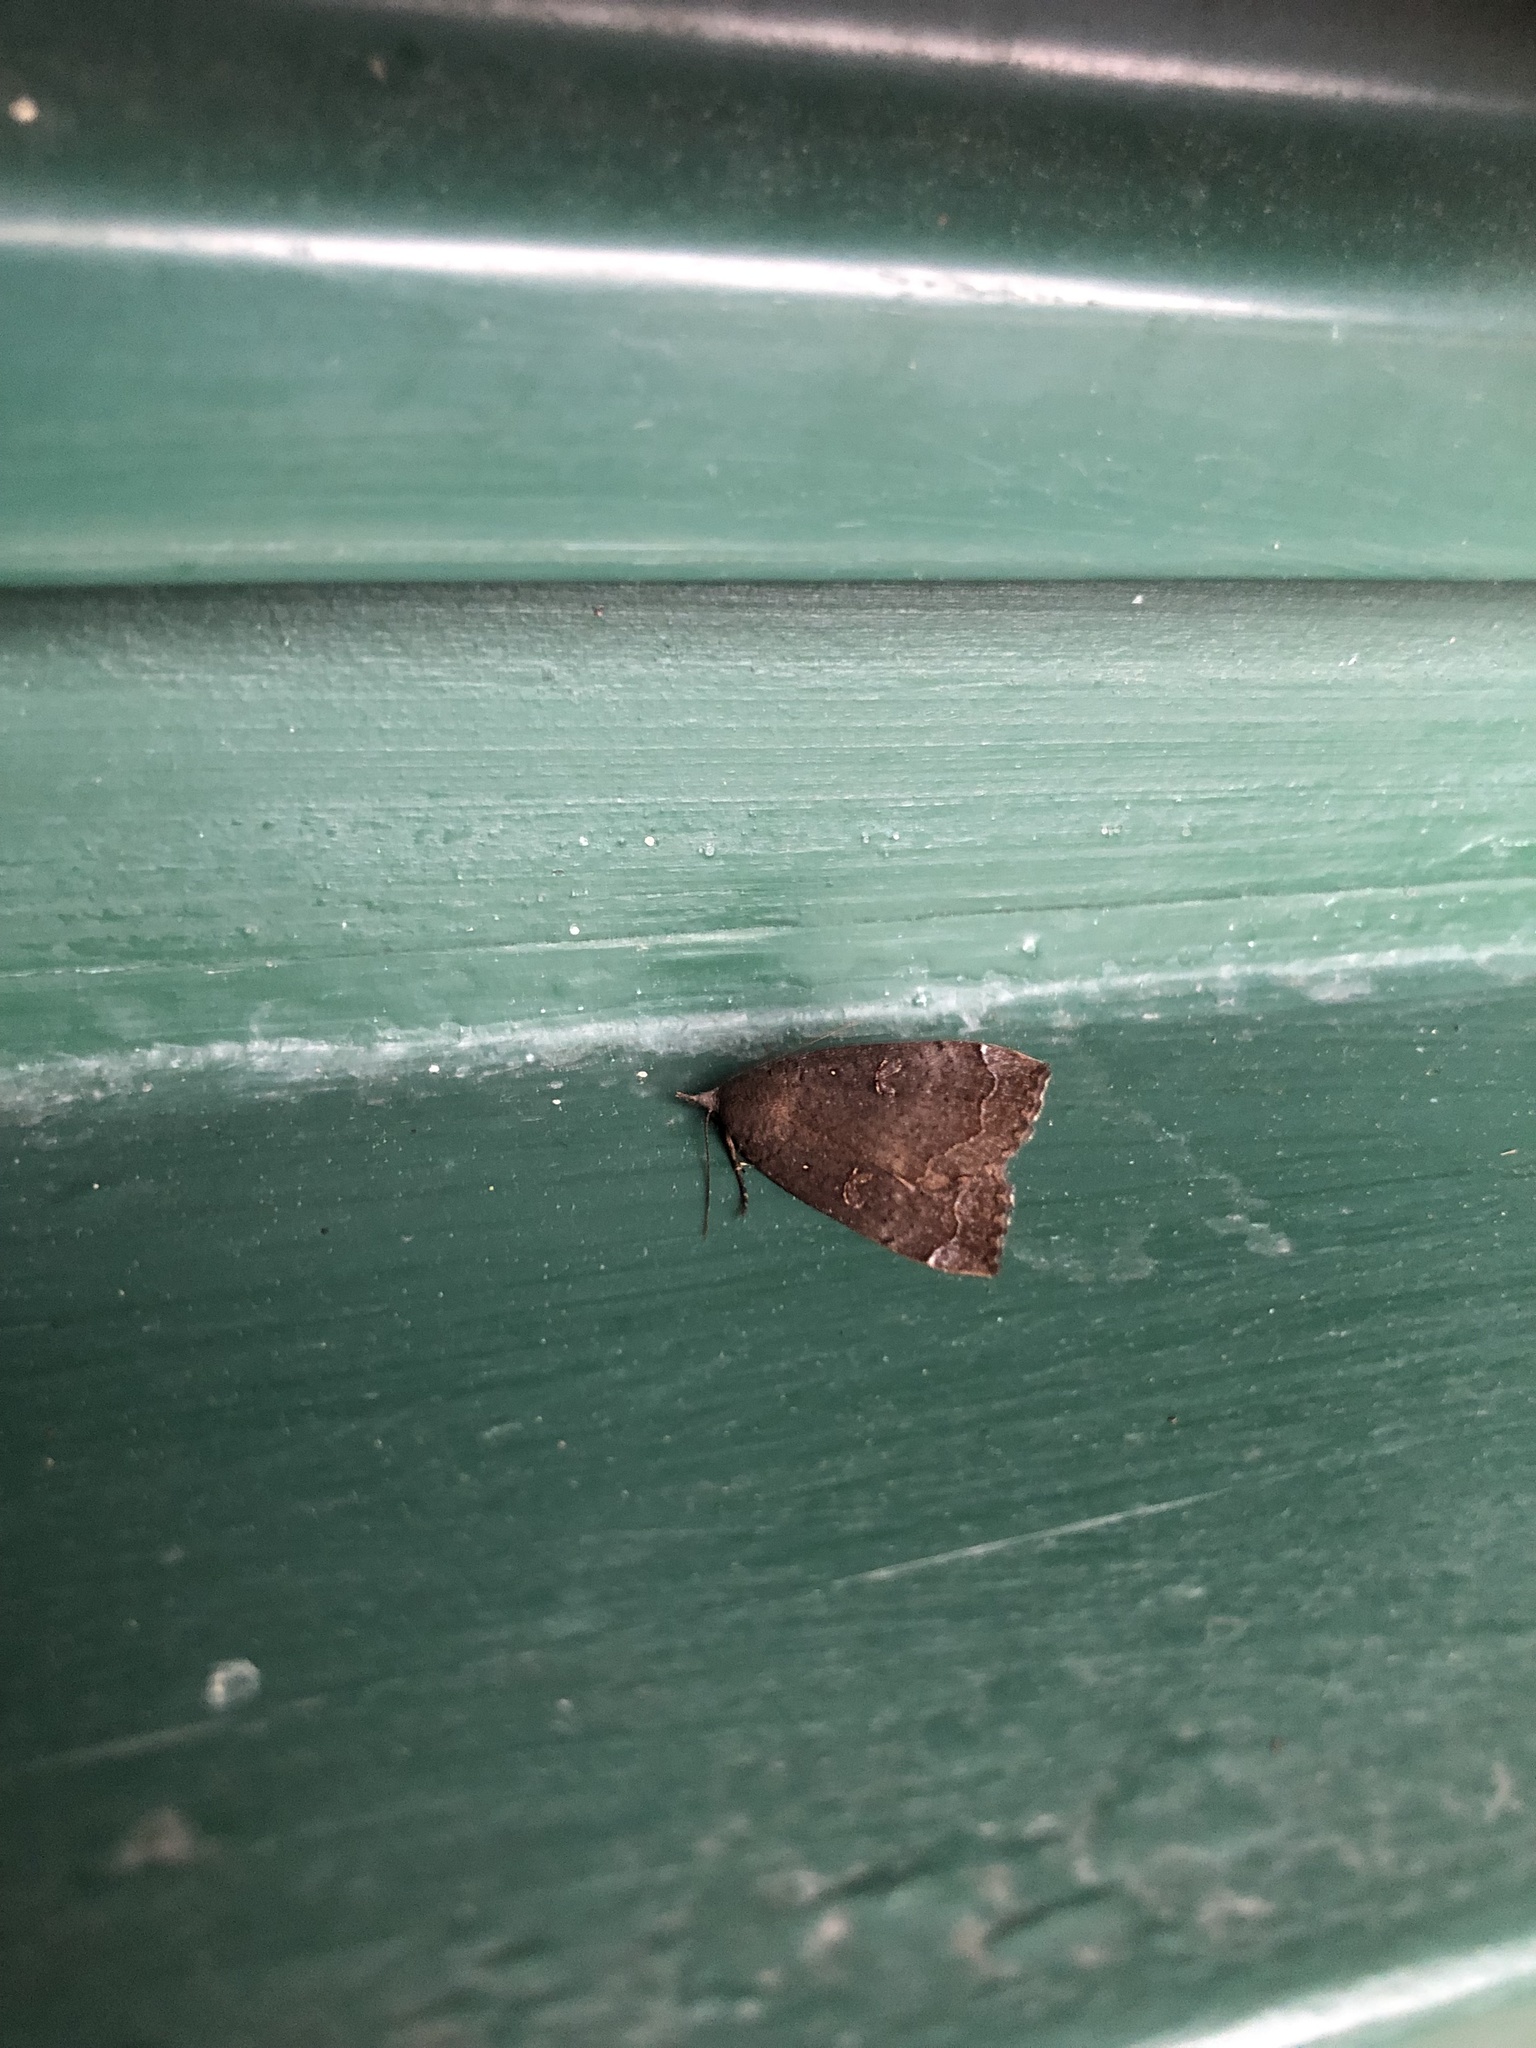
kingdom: Animalia
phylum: Arthropoda
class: Insecta
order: Lepidoptera
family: Erebidae
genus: Rhapsa
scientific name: Rhapsa scotosialis
